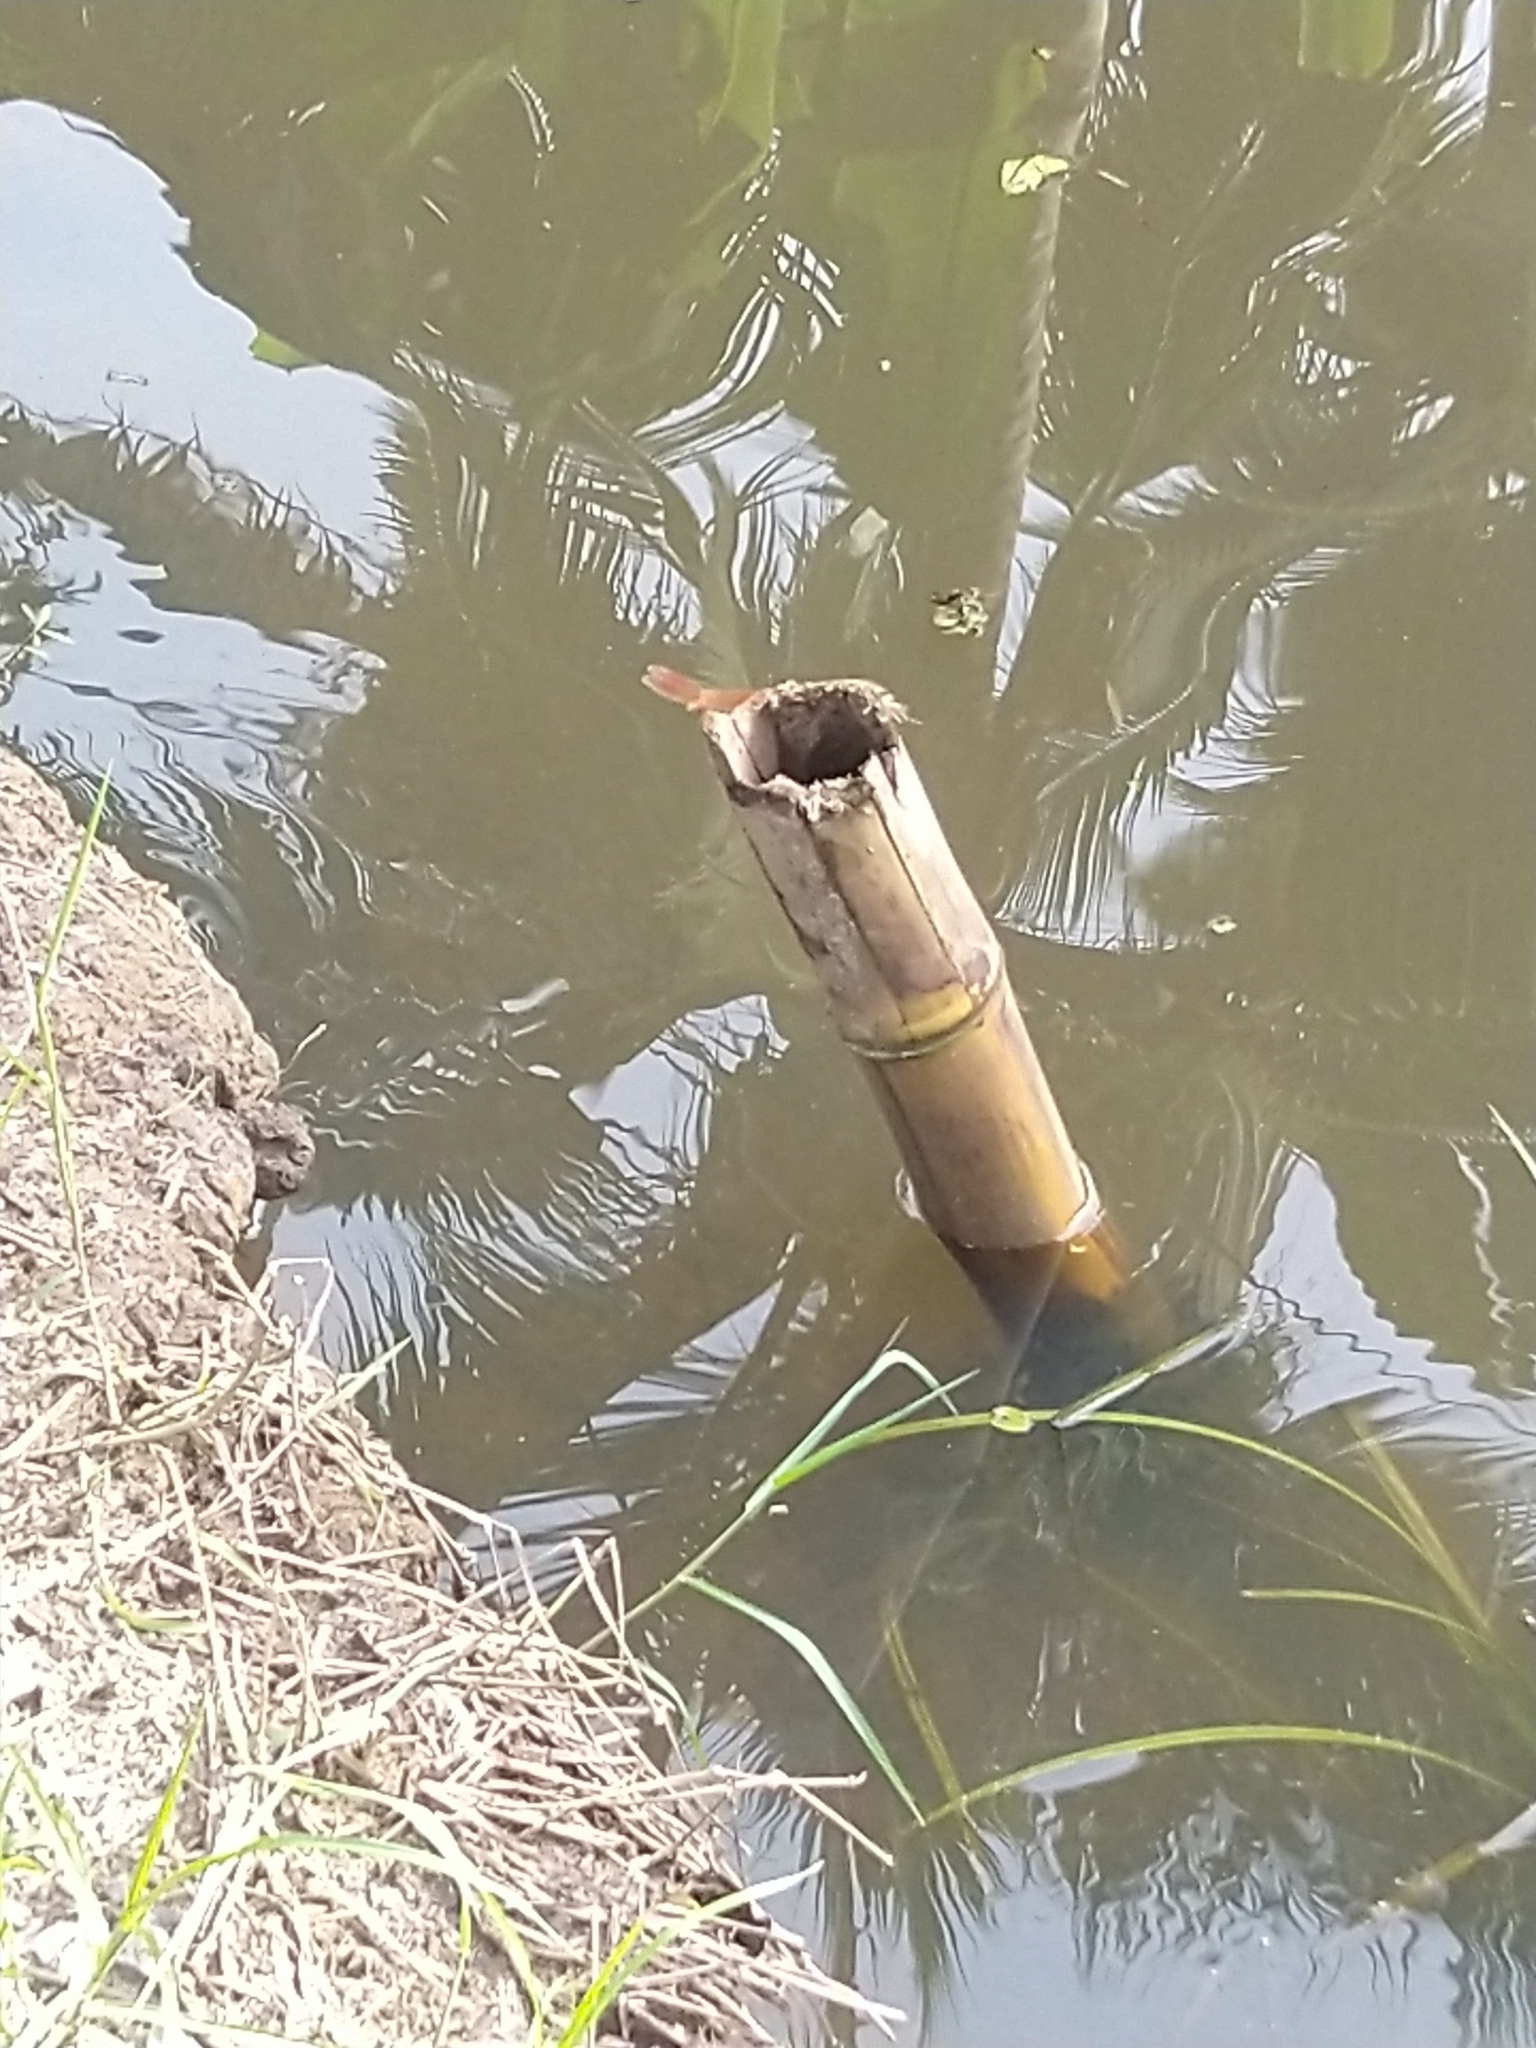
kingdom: Animalia
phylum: Arthropoda
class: Insecta
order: Odonata
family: Libellulidae
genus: Brachythemis
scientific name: Brachythemis contaminata
